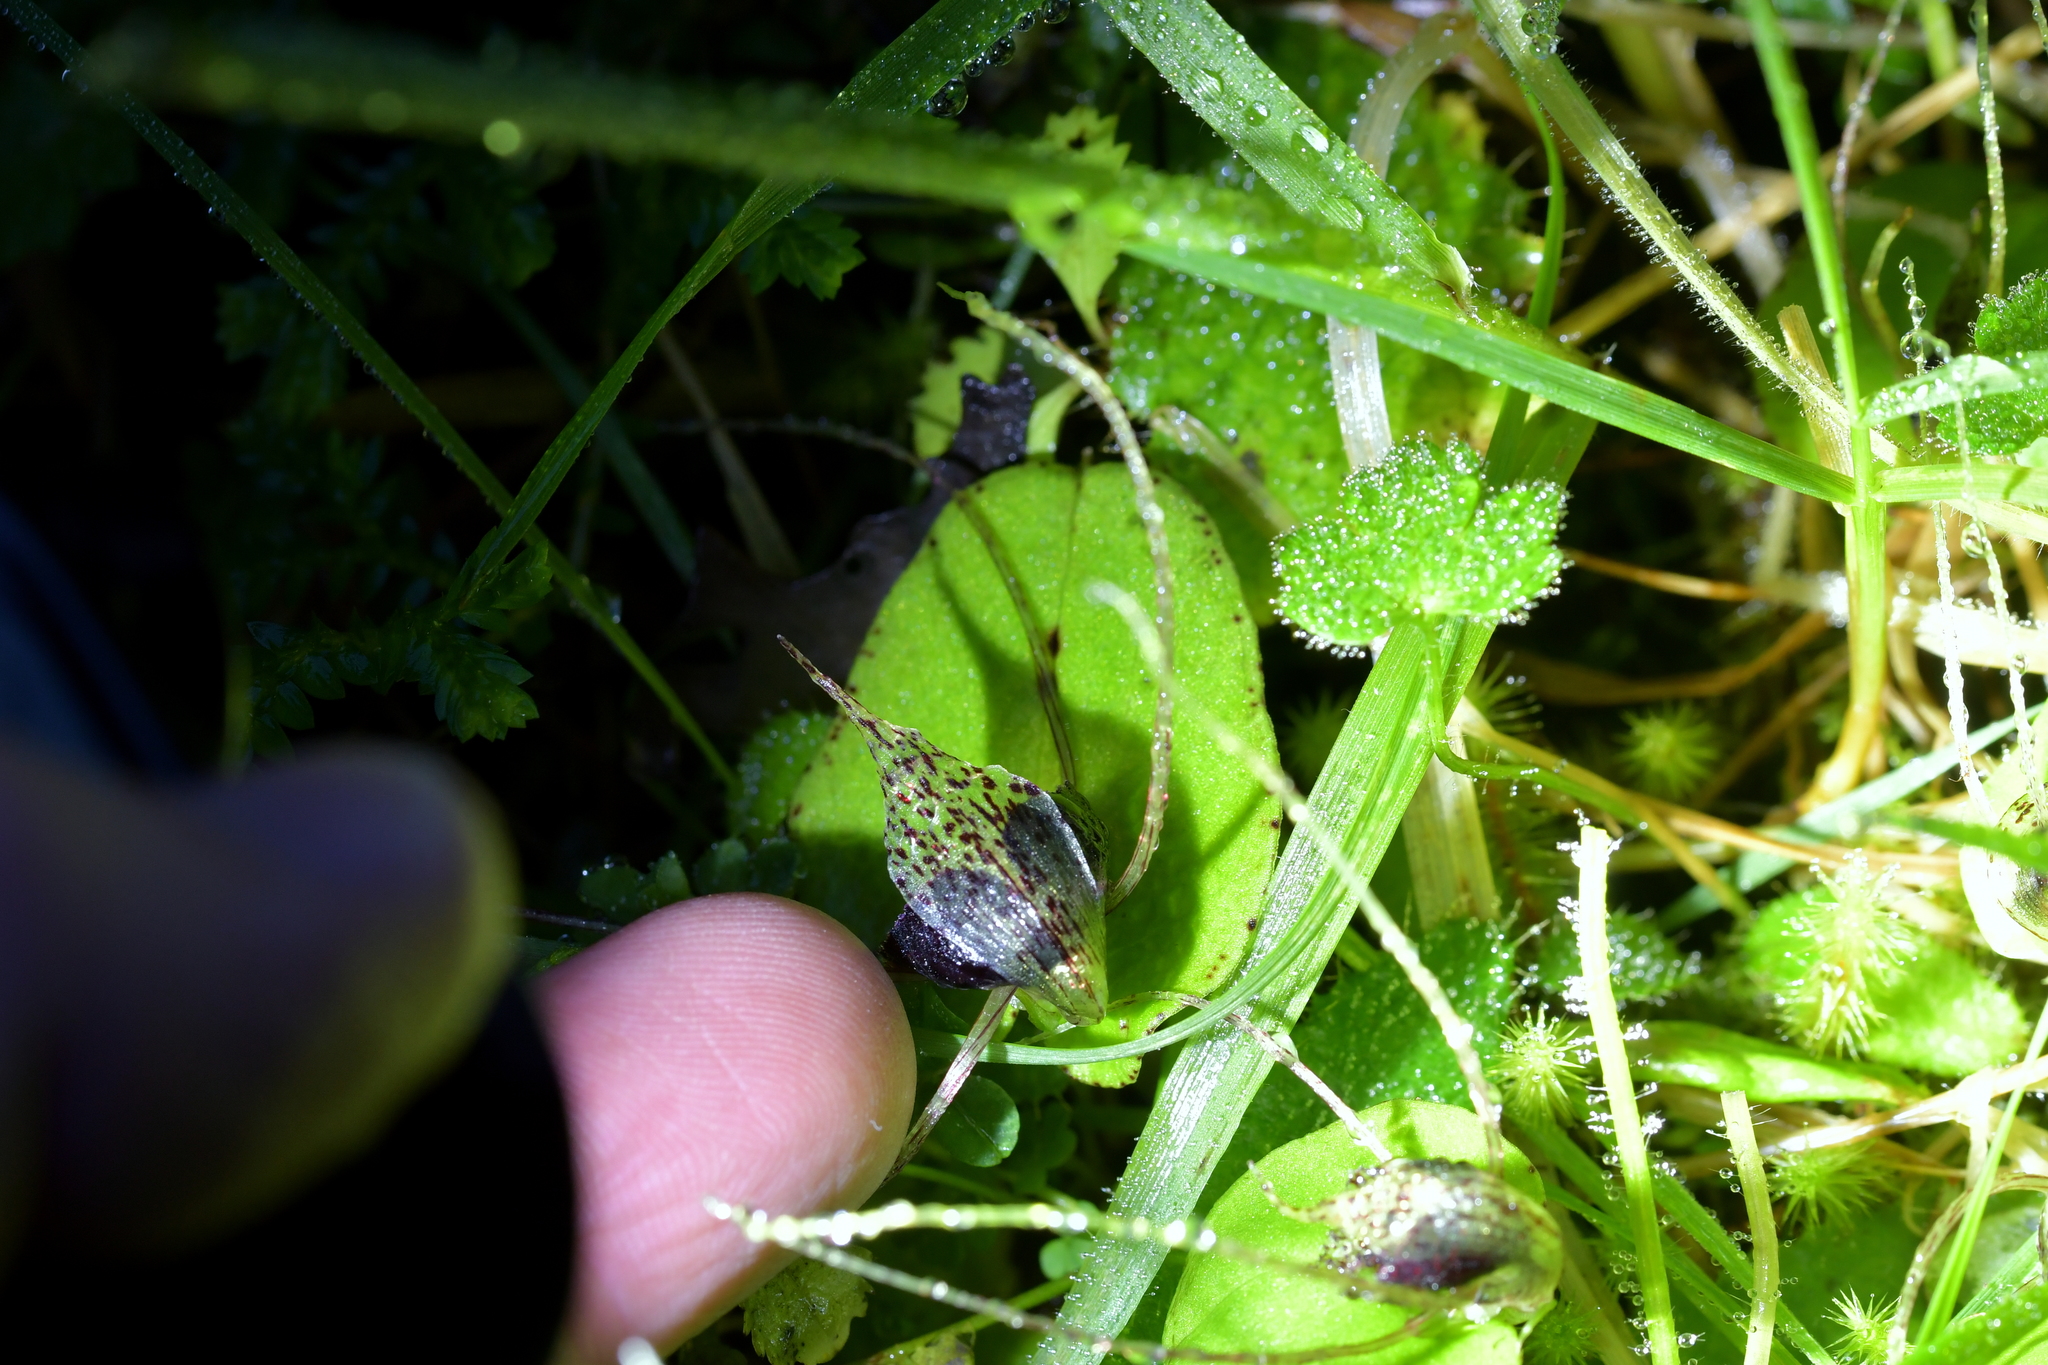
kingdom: Plantae
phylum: Tracheophyta
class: Liliopsida
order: Asparagales
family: Orchidaceae
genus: Corybas
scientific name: Corybas iridescens
